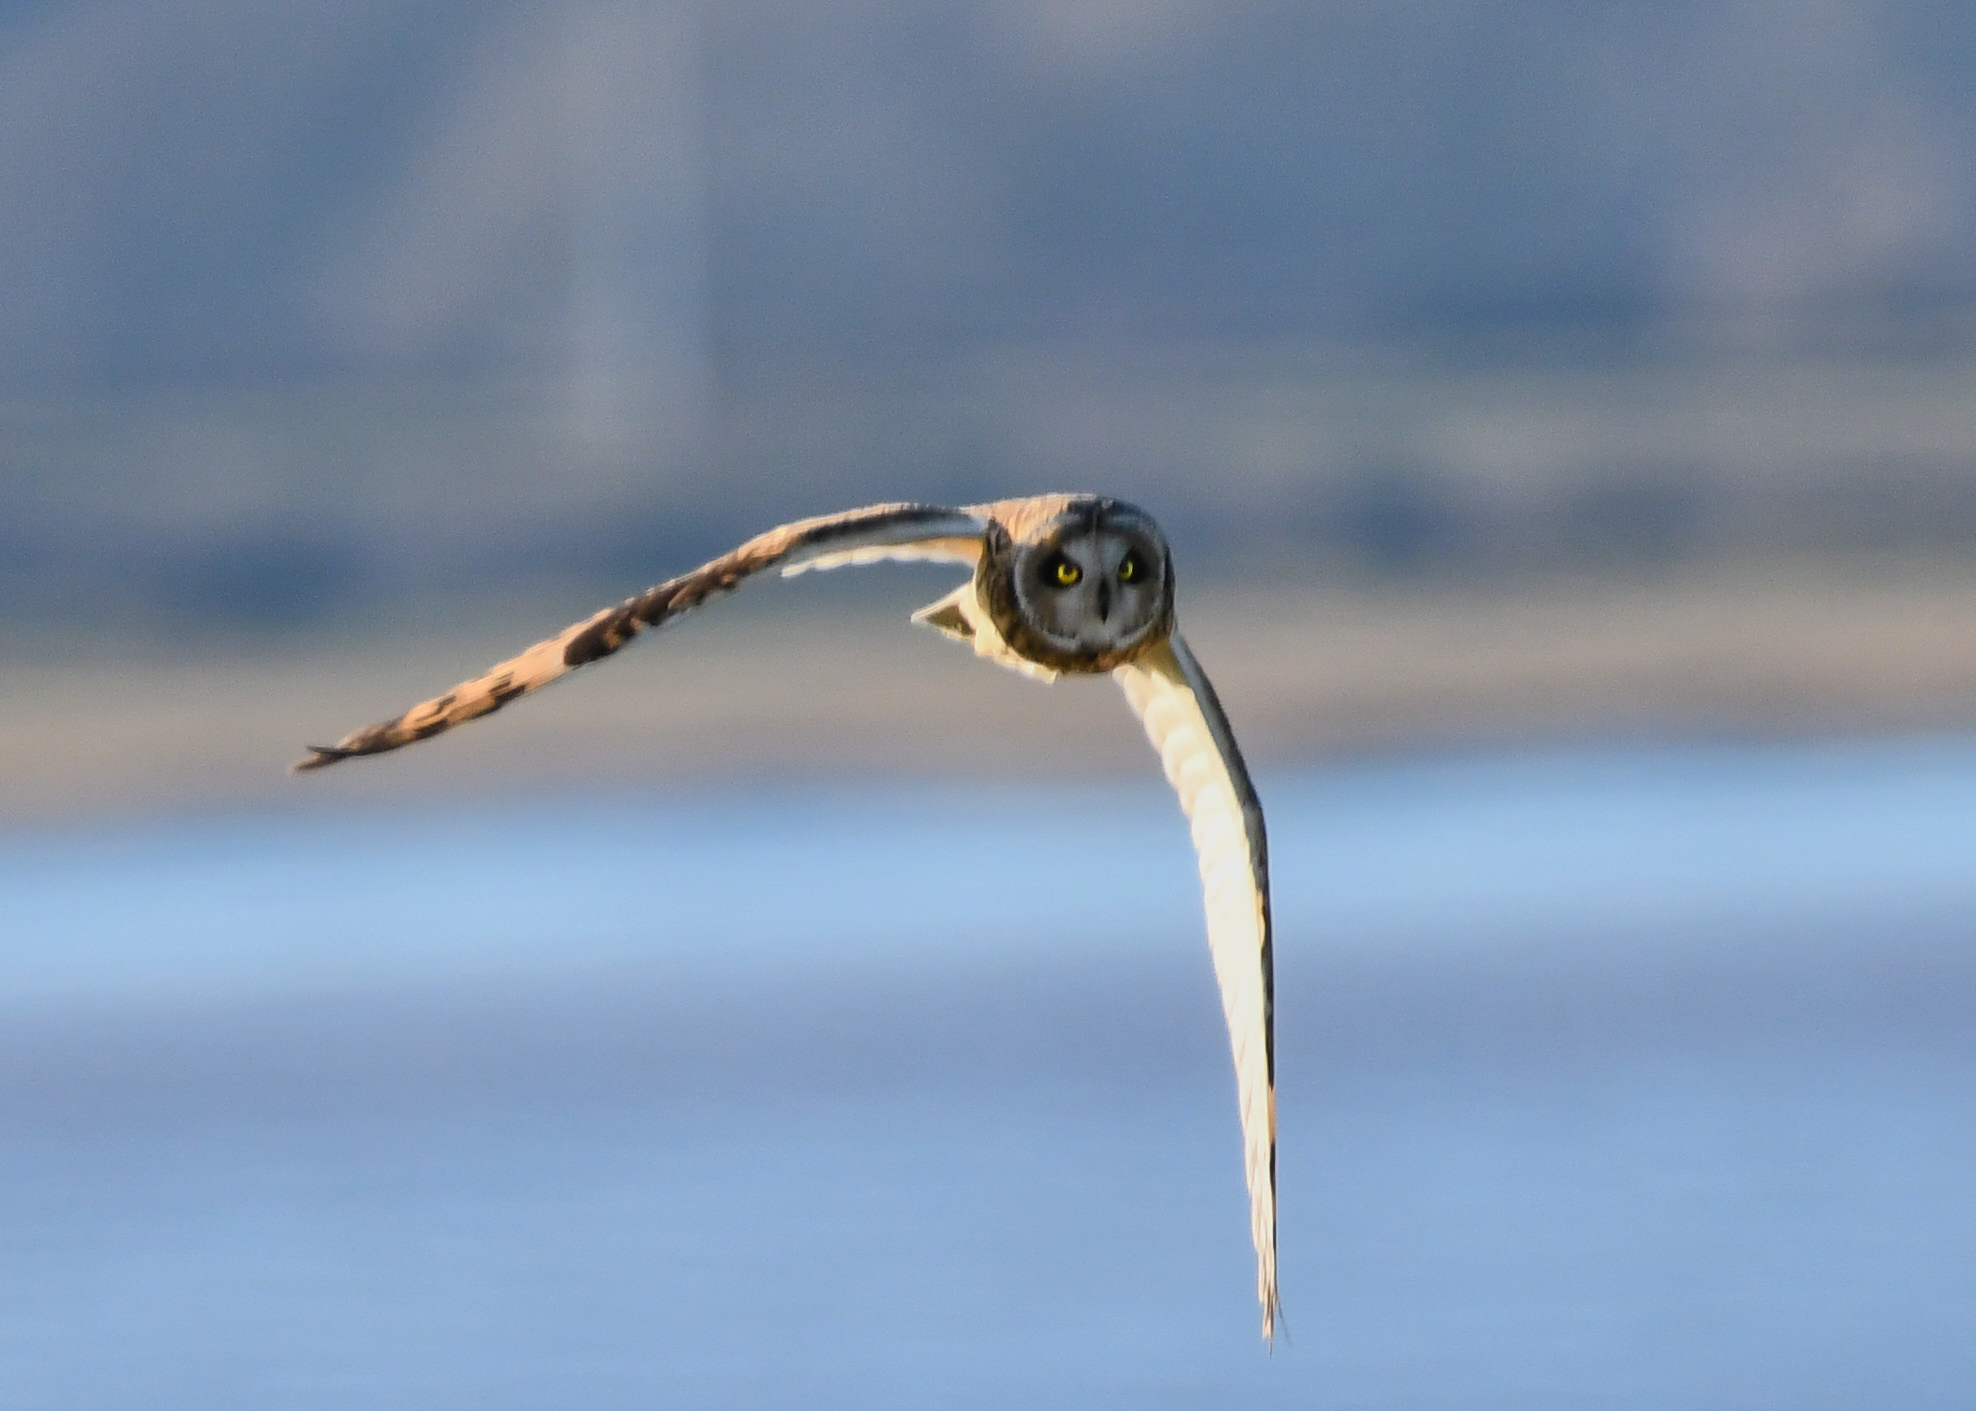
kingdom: Animalia
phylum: Chordata
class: Aves
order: Strigiformes
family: Strigidae
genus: Asio
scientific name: Asio flammeus
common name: Short-eared owl
